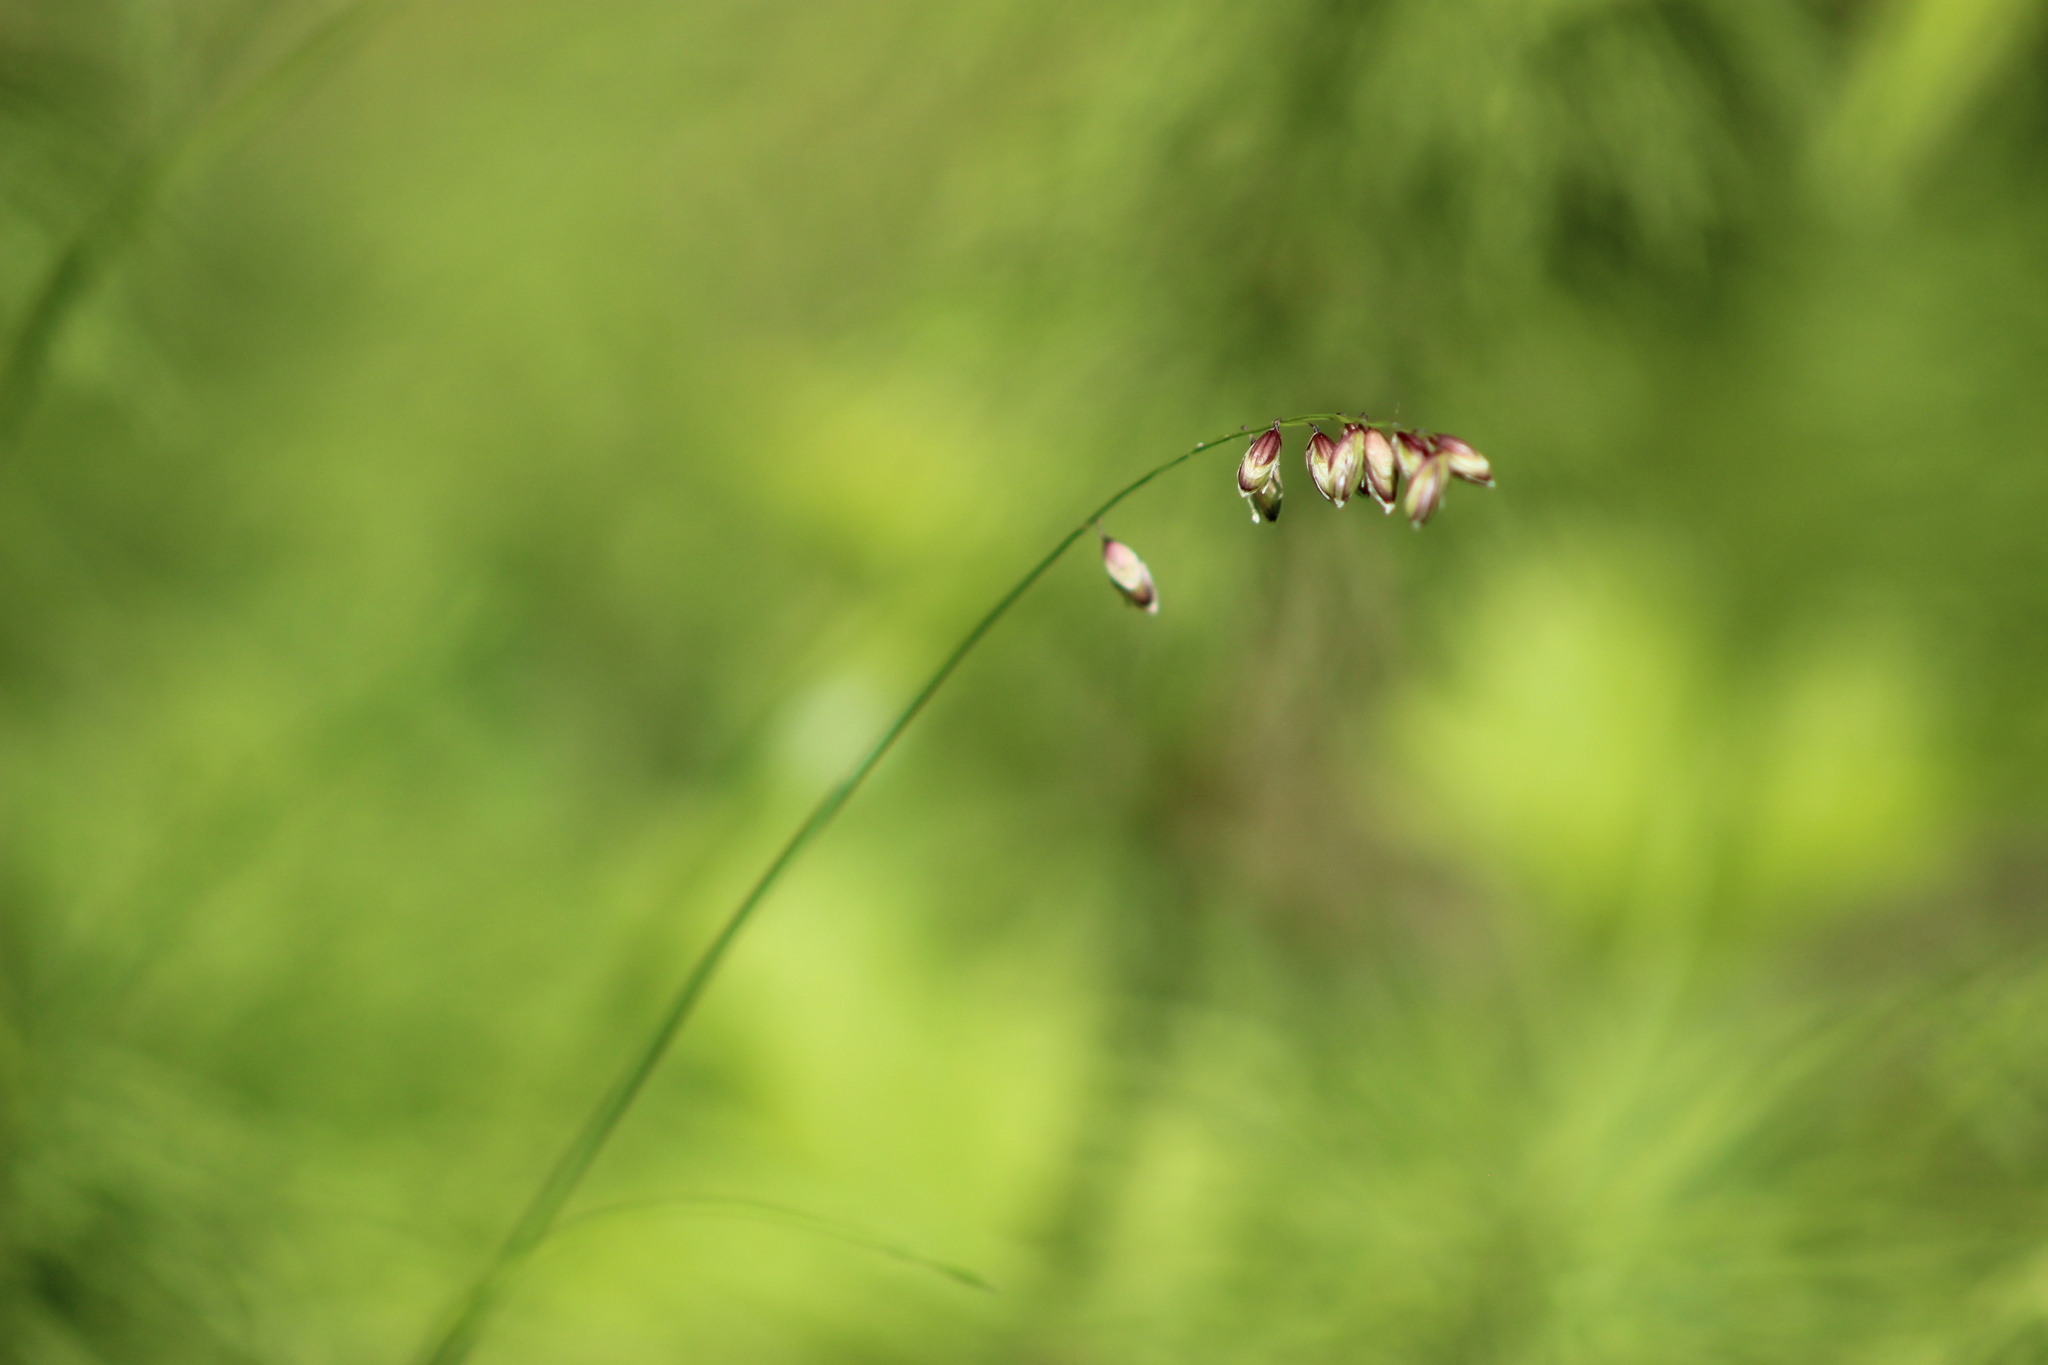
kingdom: Plantae
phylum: Tracheophyta
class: Liliopsida
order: Poales
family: Poaceae
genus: Melica
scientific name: Melica nutans
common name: Mountain melick
